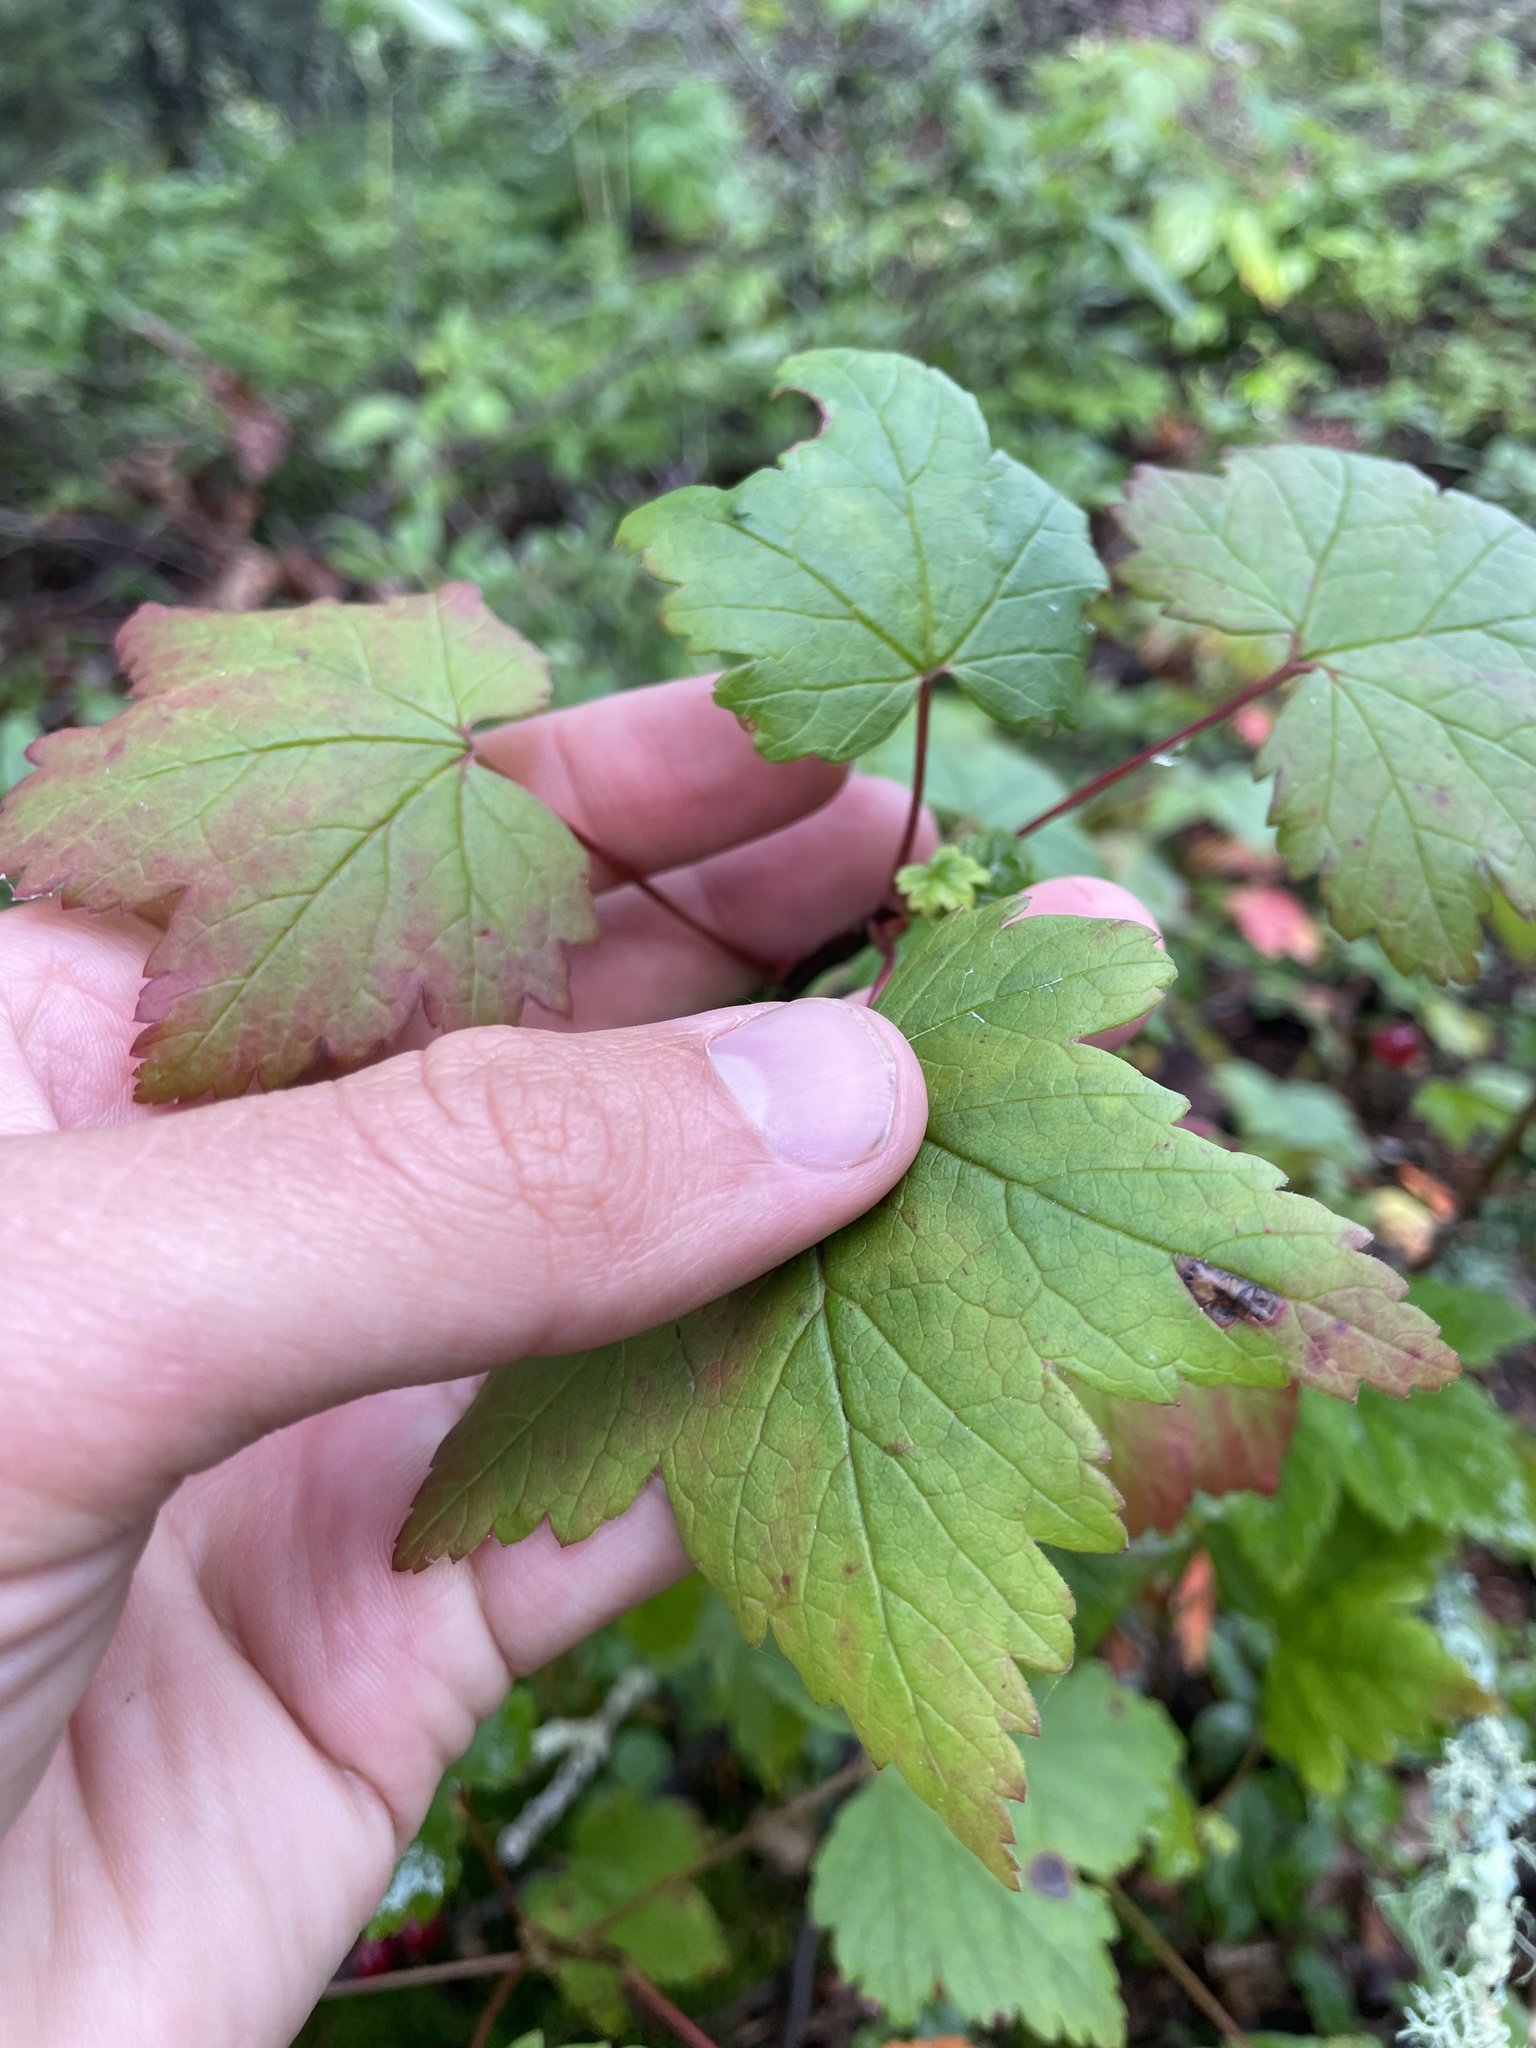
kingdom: Plantae
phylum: Tracheophyta
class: Magnoliopsida
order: Saxifragales
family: Grossulariaceae
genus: Ribes
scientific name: Ribes glandulosum
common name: Skunk currant
